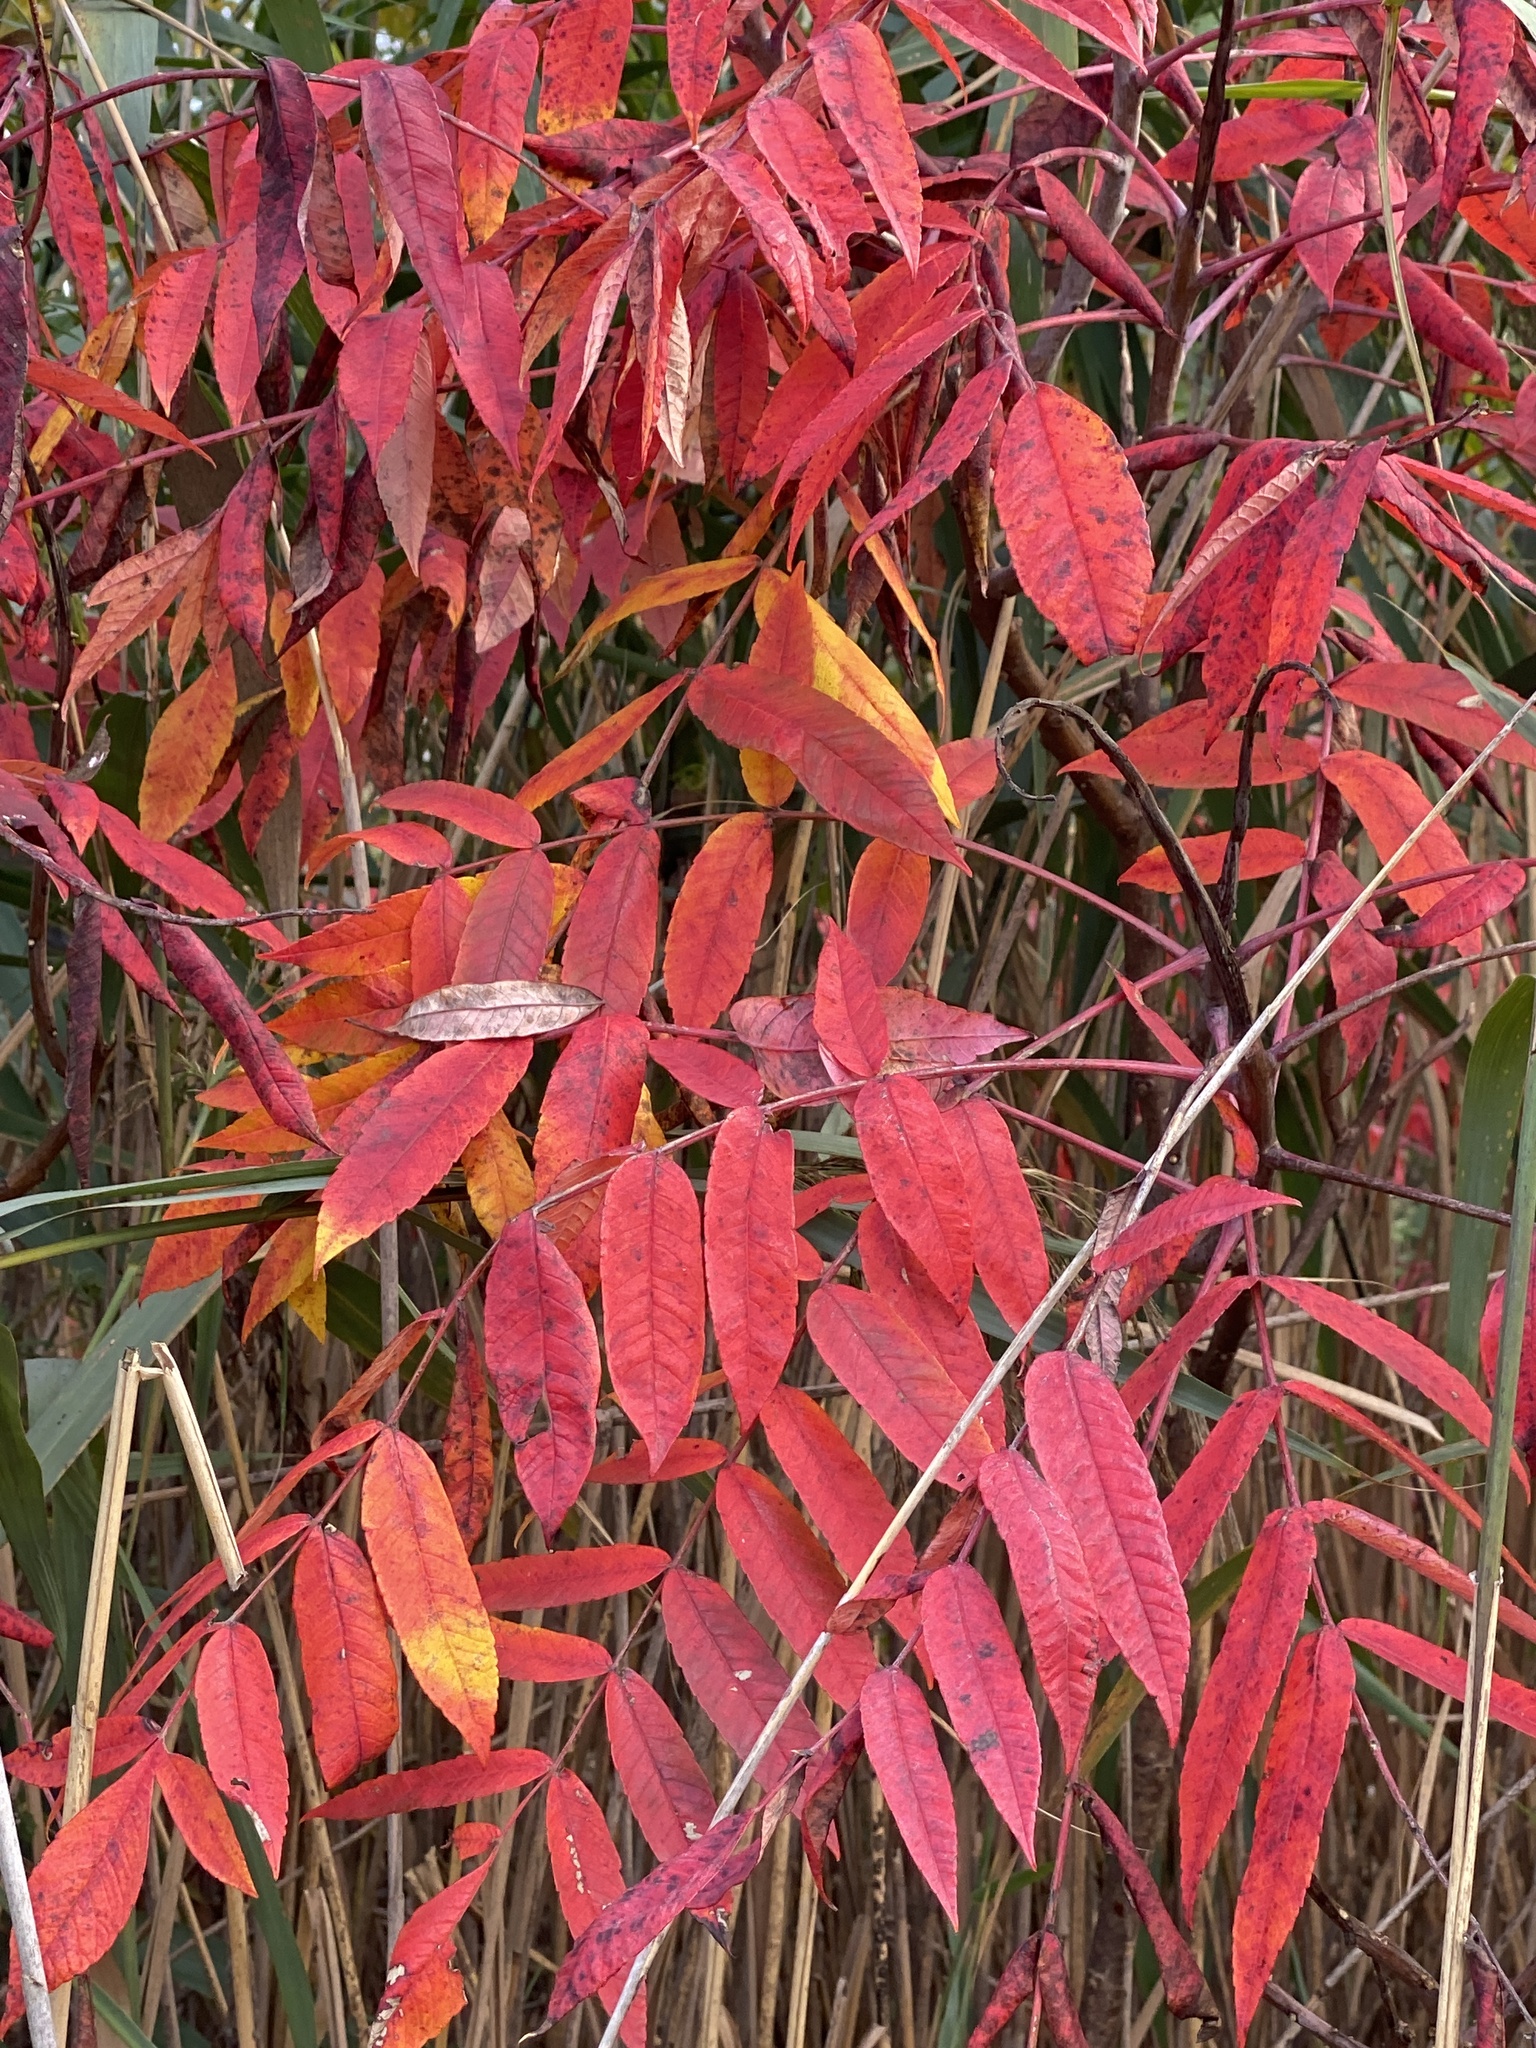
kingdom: Plantae
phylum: Tracheophyta
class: Magnoliopsida
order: Sapindales
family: Anacardiaceae
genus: Rhus
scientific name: Rhus glabra
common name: Scarlet sumac
